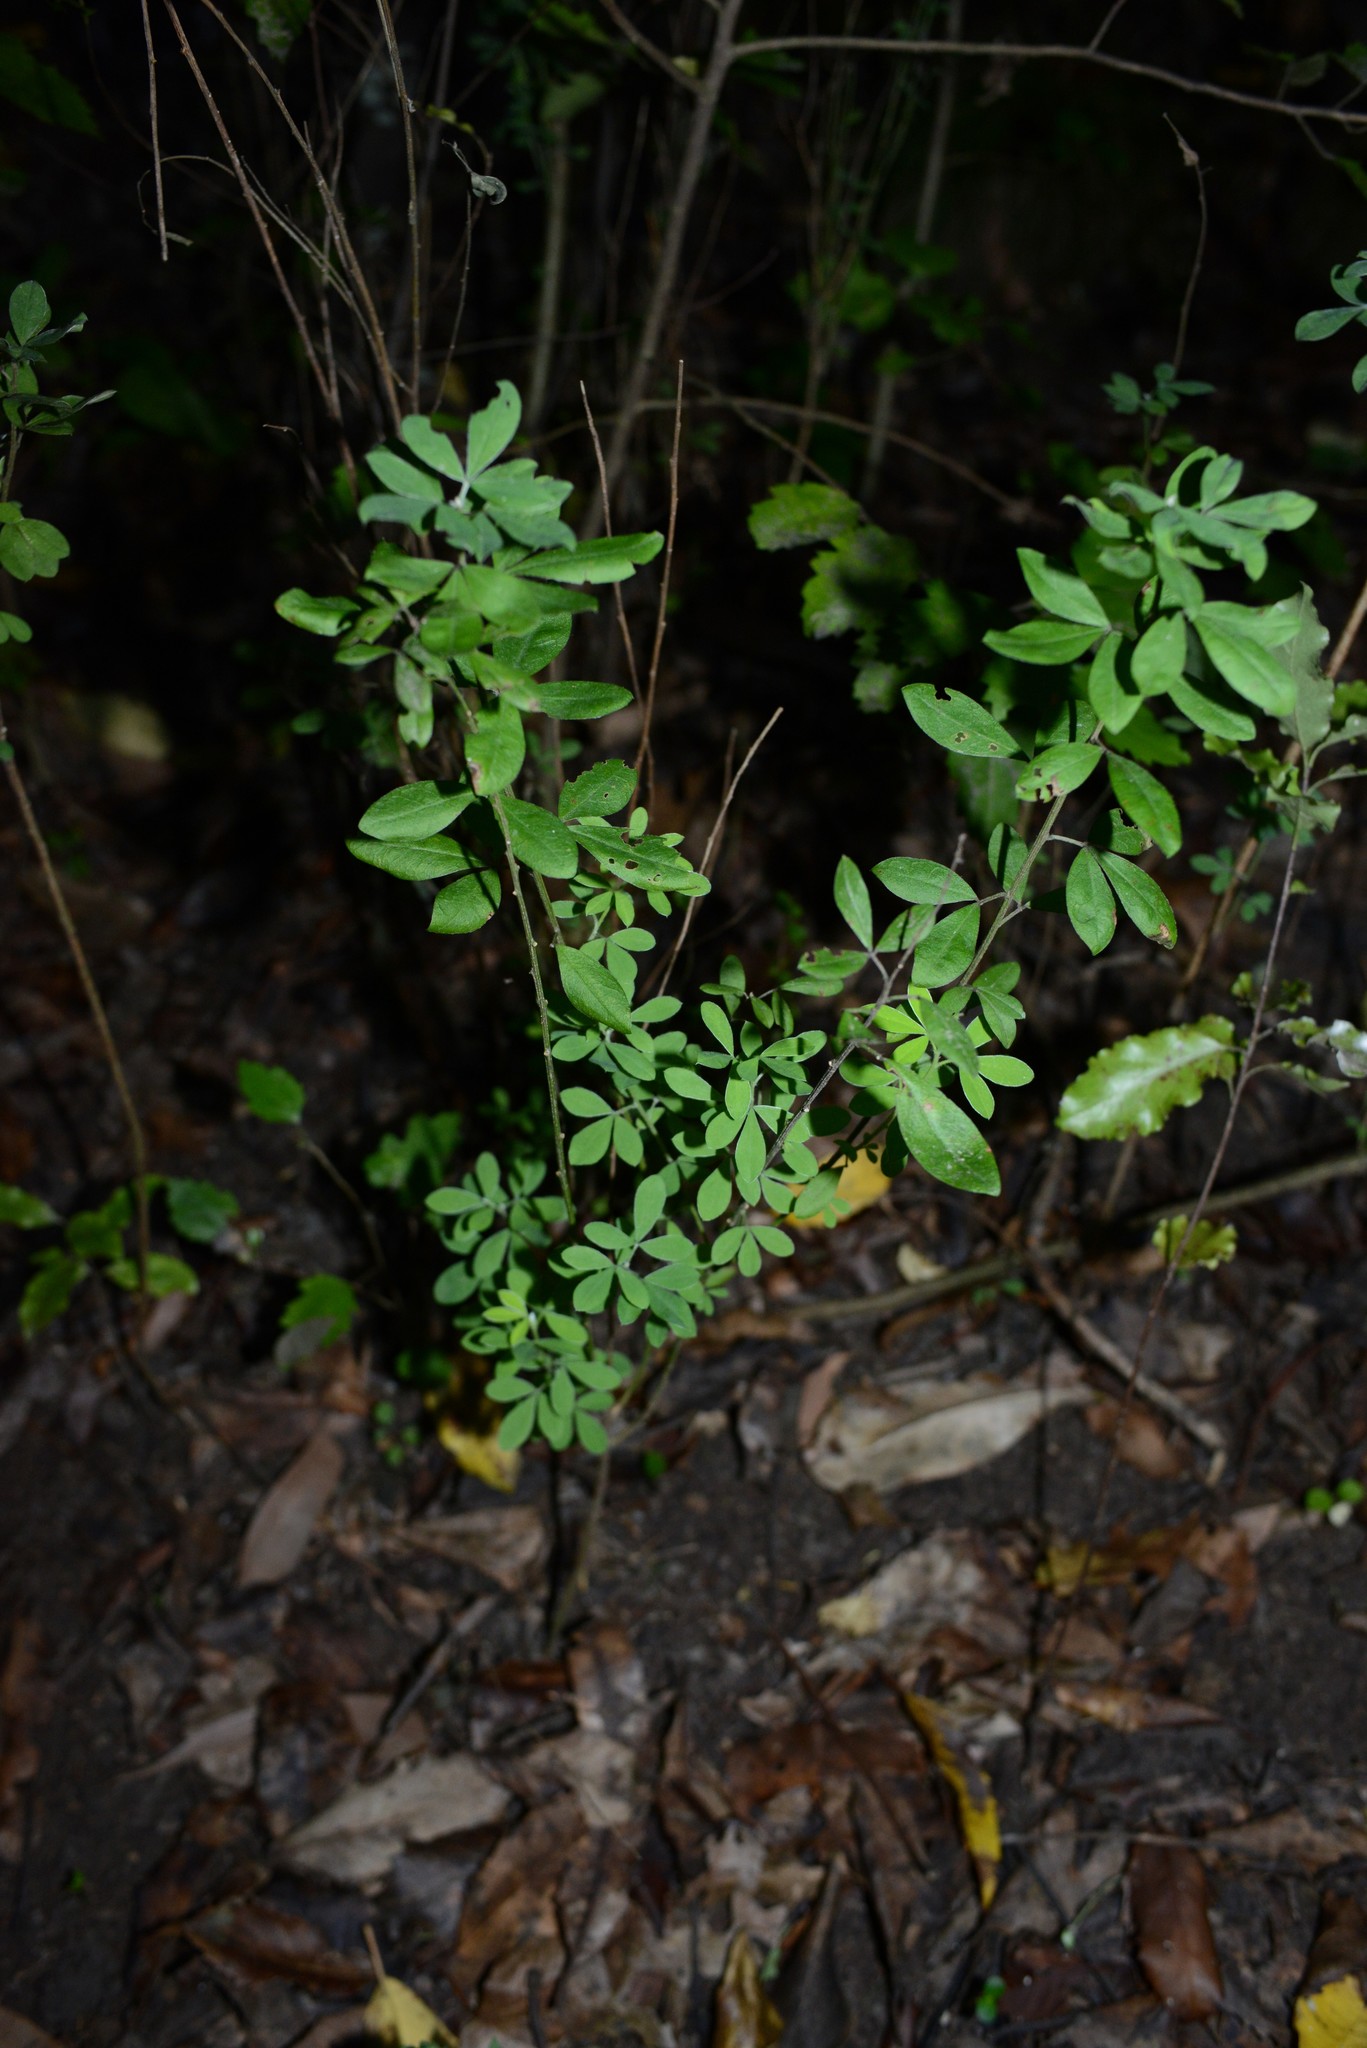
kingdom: Plantae
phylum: Tracheophyta
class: Magnoliopsida
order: Fabales
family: Fabaceae
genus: Chamaecytisus
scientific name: Chamaecytisus prolifer
